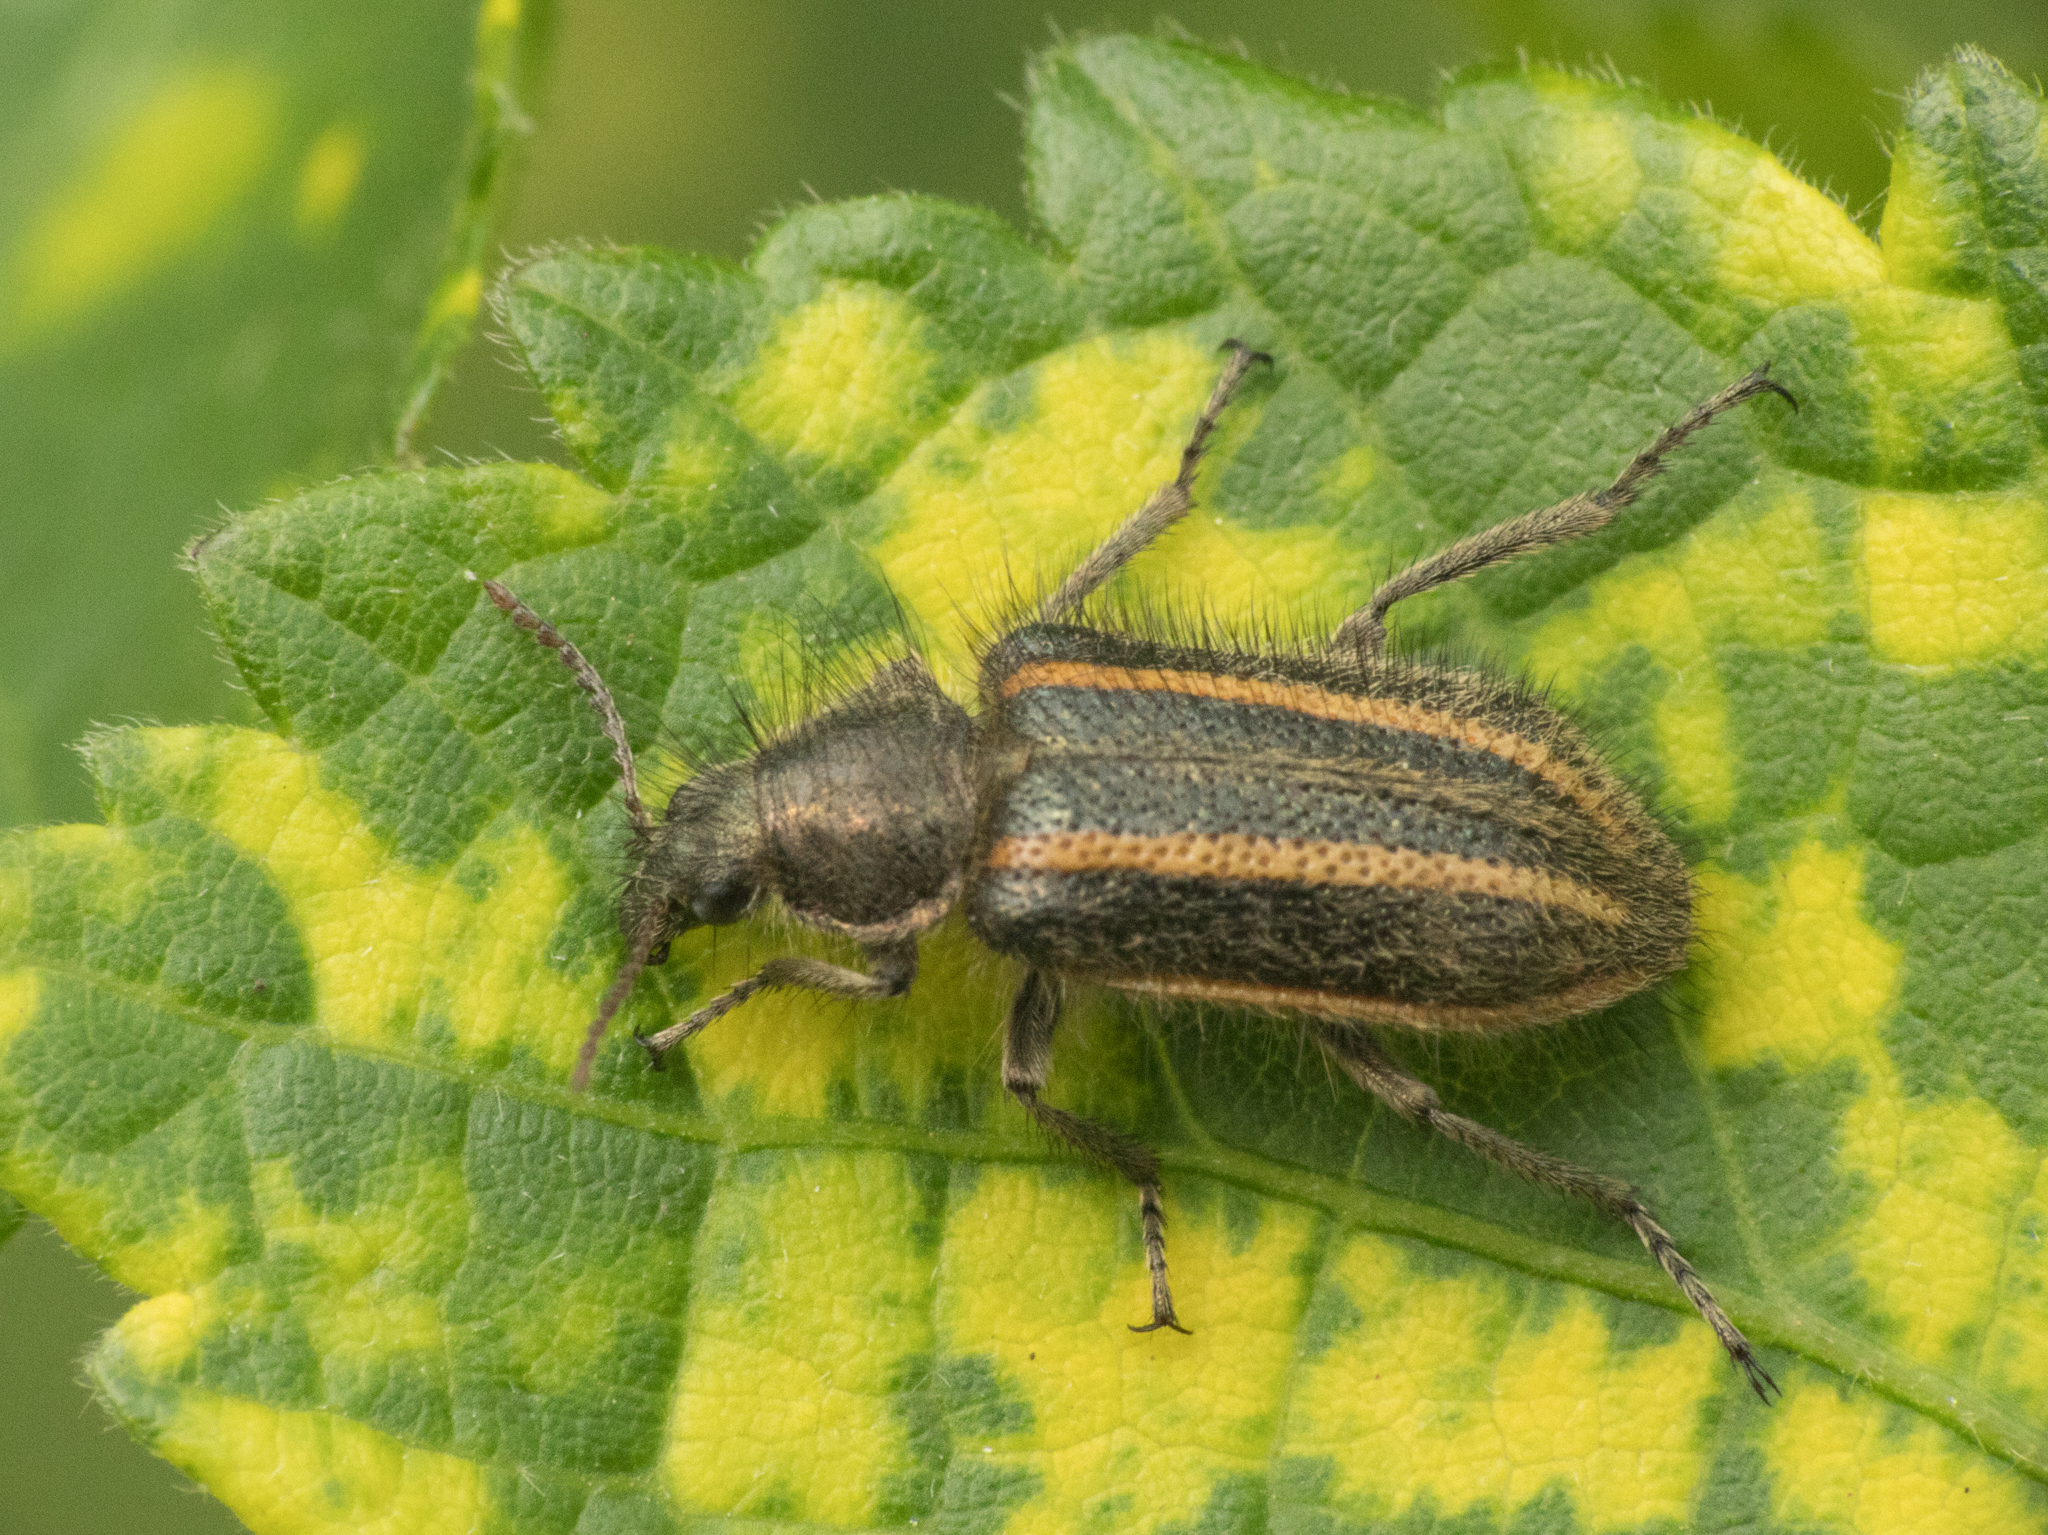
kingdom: Animalia
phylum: Arthropoda
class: Insecta
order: Coleoptera
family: Melyridae
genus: Astylus
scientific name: Astylus
